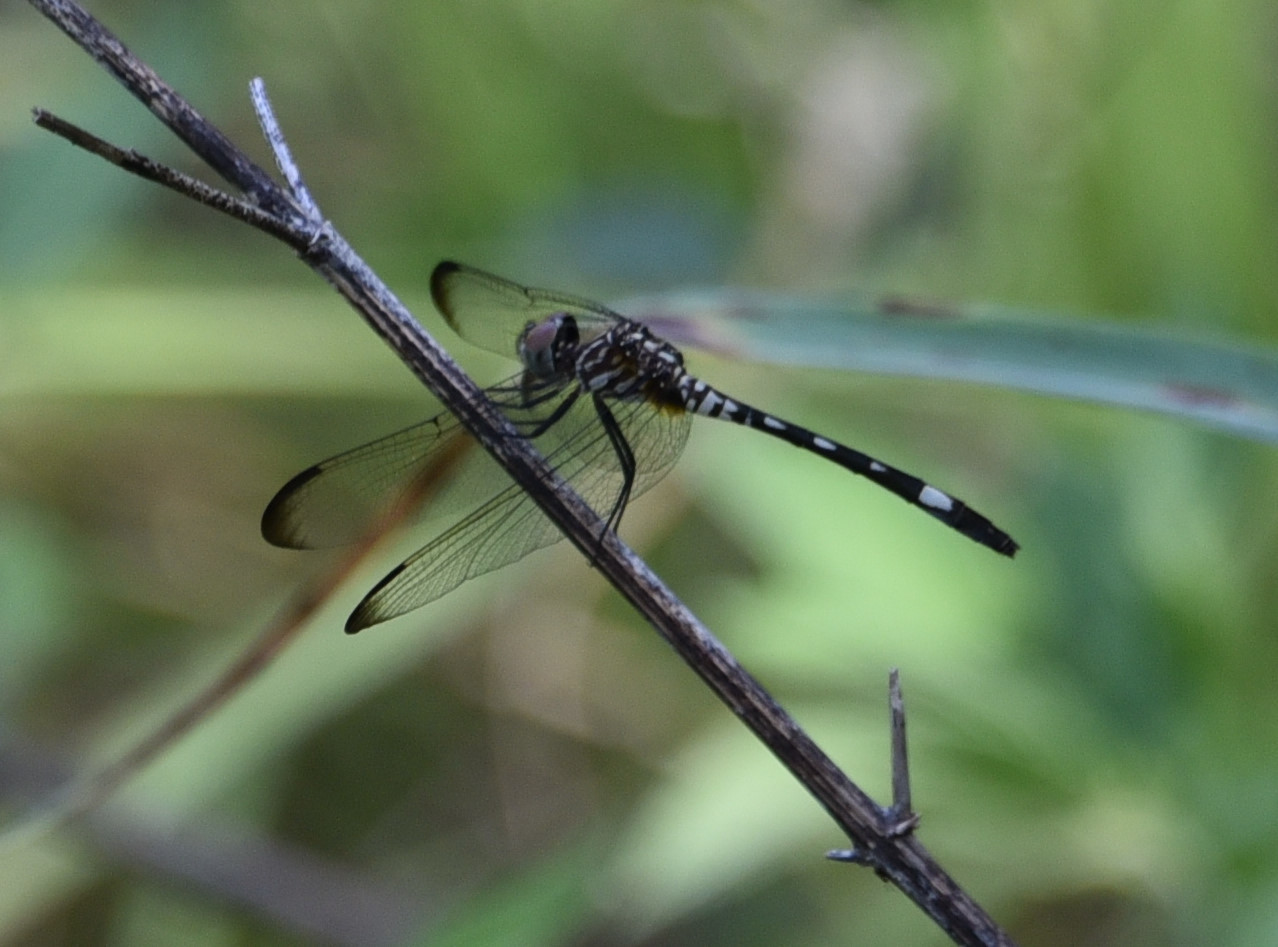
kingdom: Animalia
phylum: Arthropoda
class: Insecta
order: Odonata
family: Libellulidae
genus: Dythemis
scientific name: Dythemis velox
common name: Swift setwing
